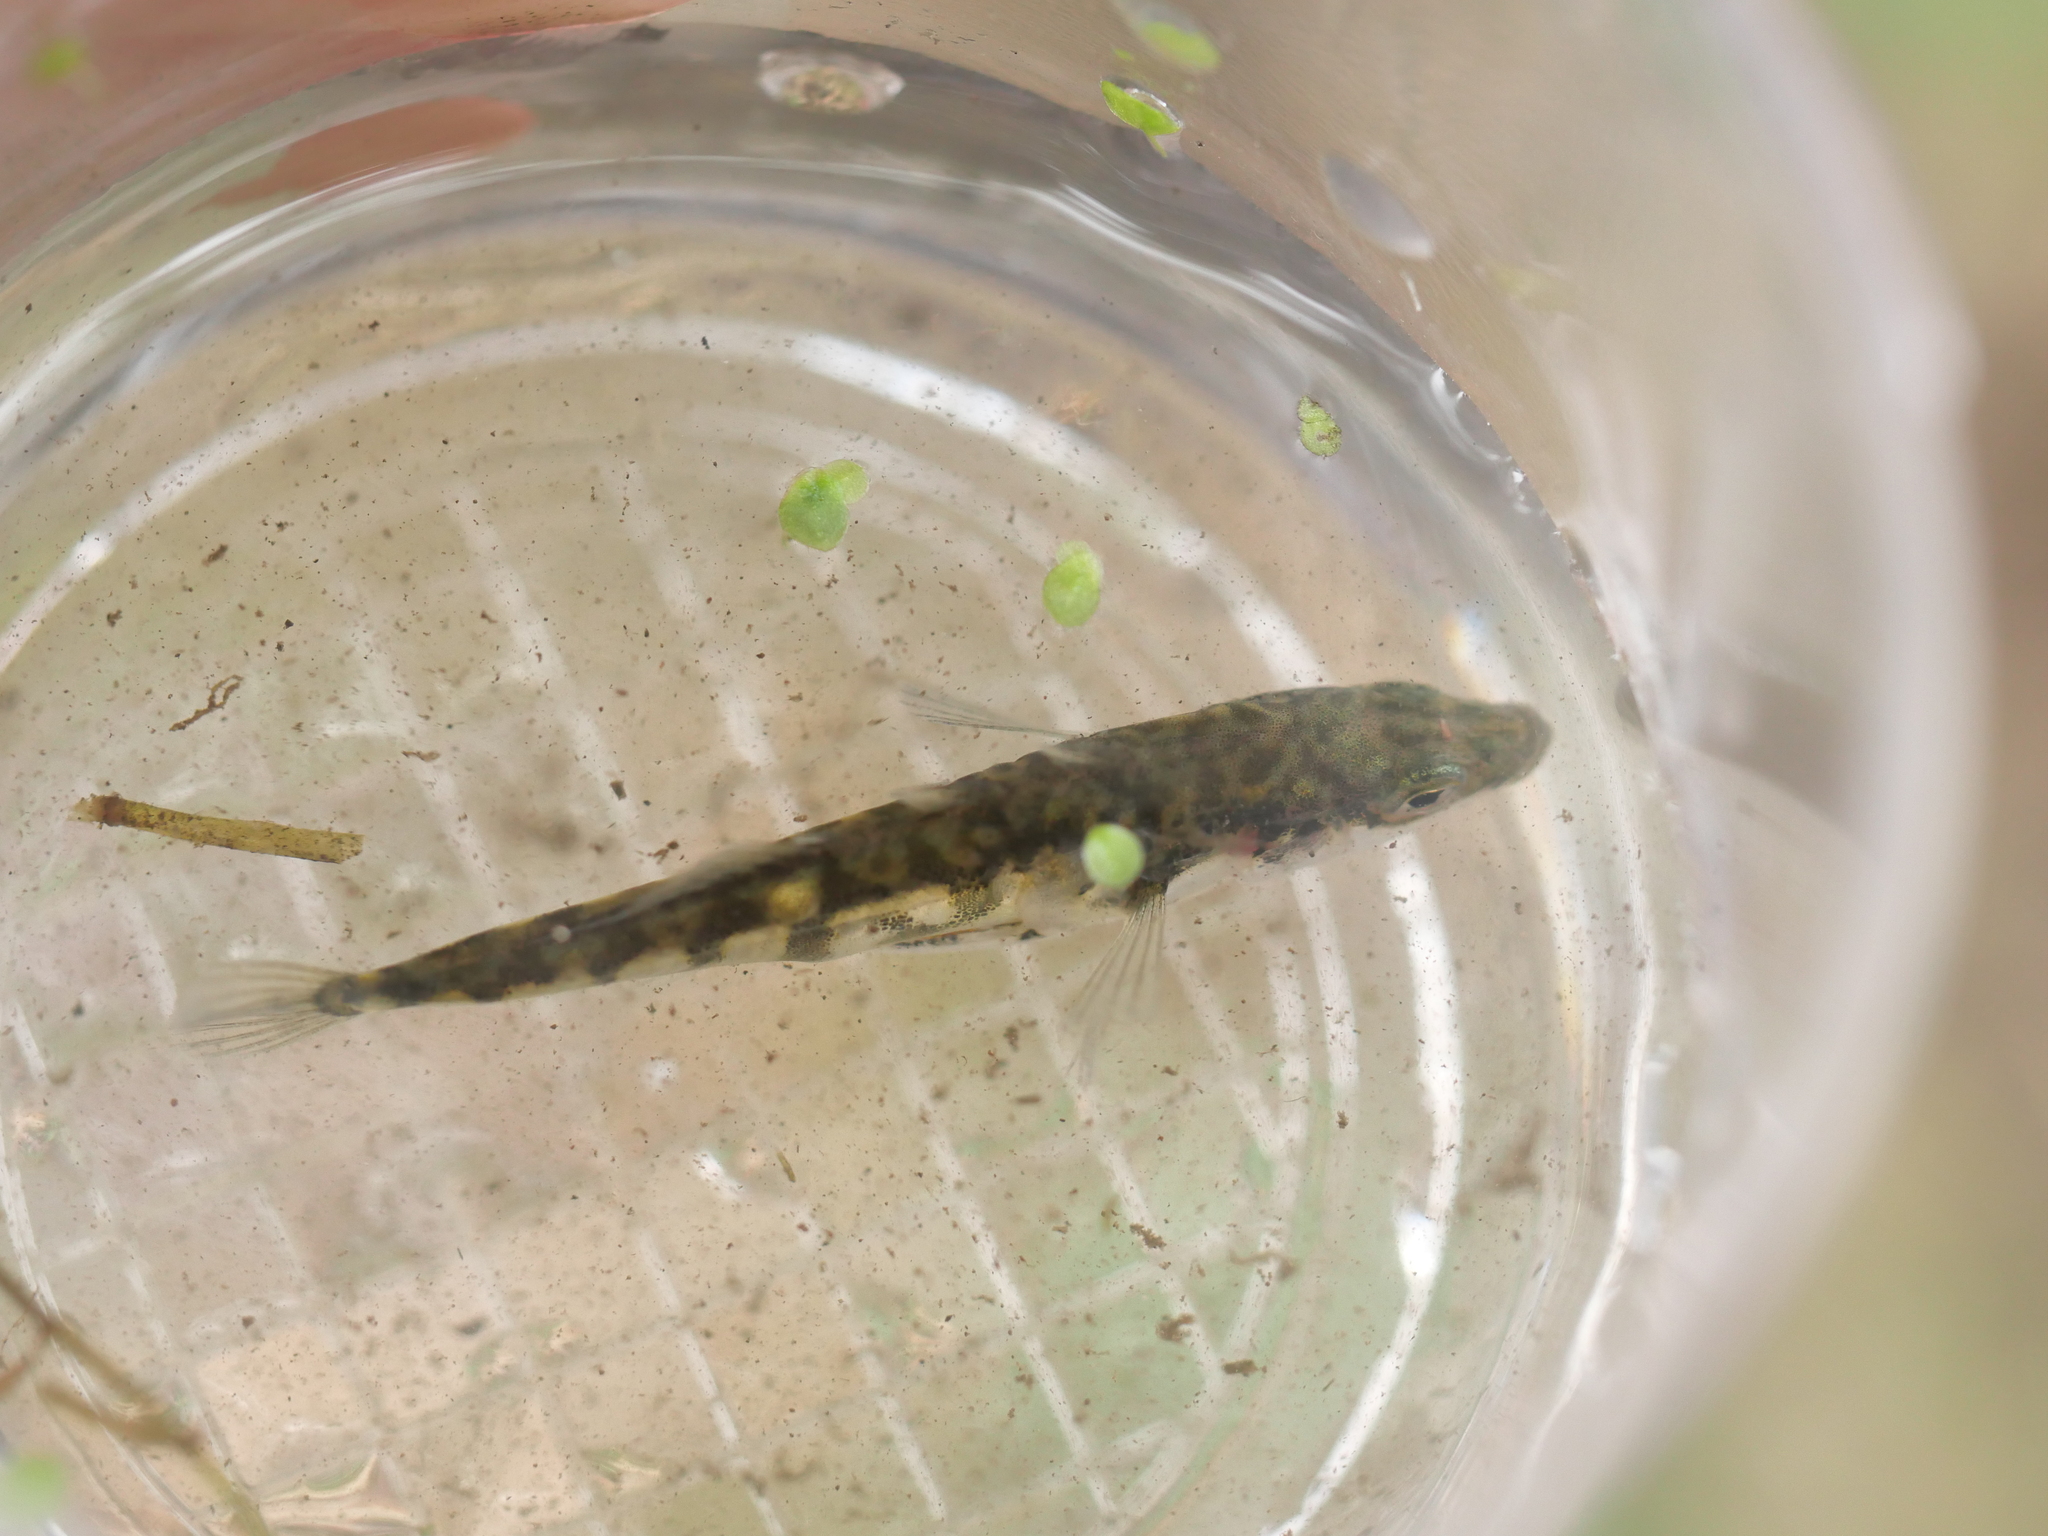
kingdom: Animalia
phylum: Chordata
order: Gasterosteiformes
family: Gasterosteidae
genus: Gasterosteus
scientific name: Gasterosteus aculeatus
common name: Three-spined stickleback
